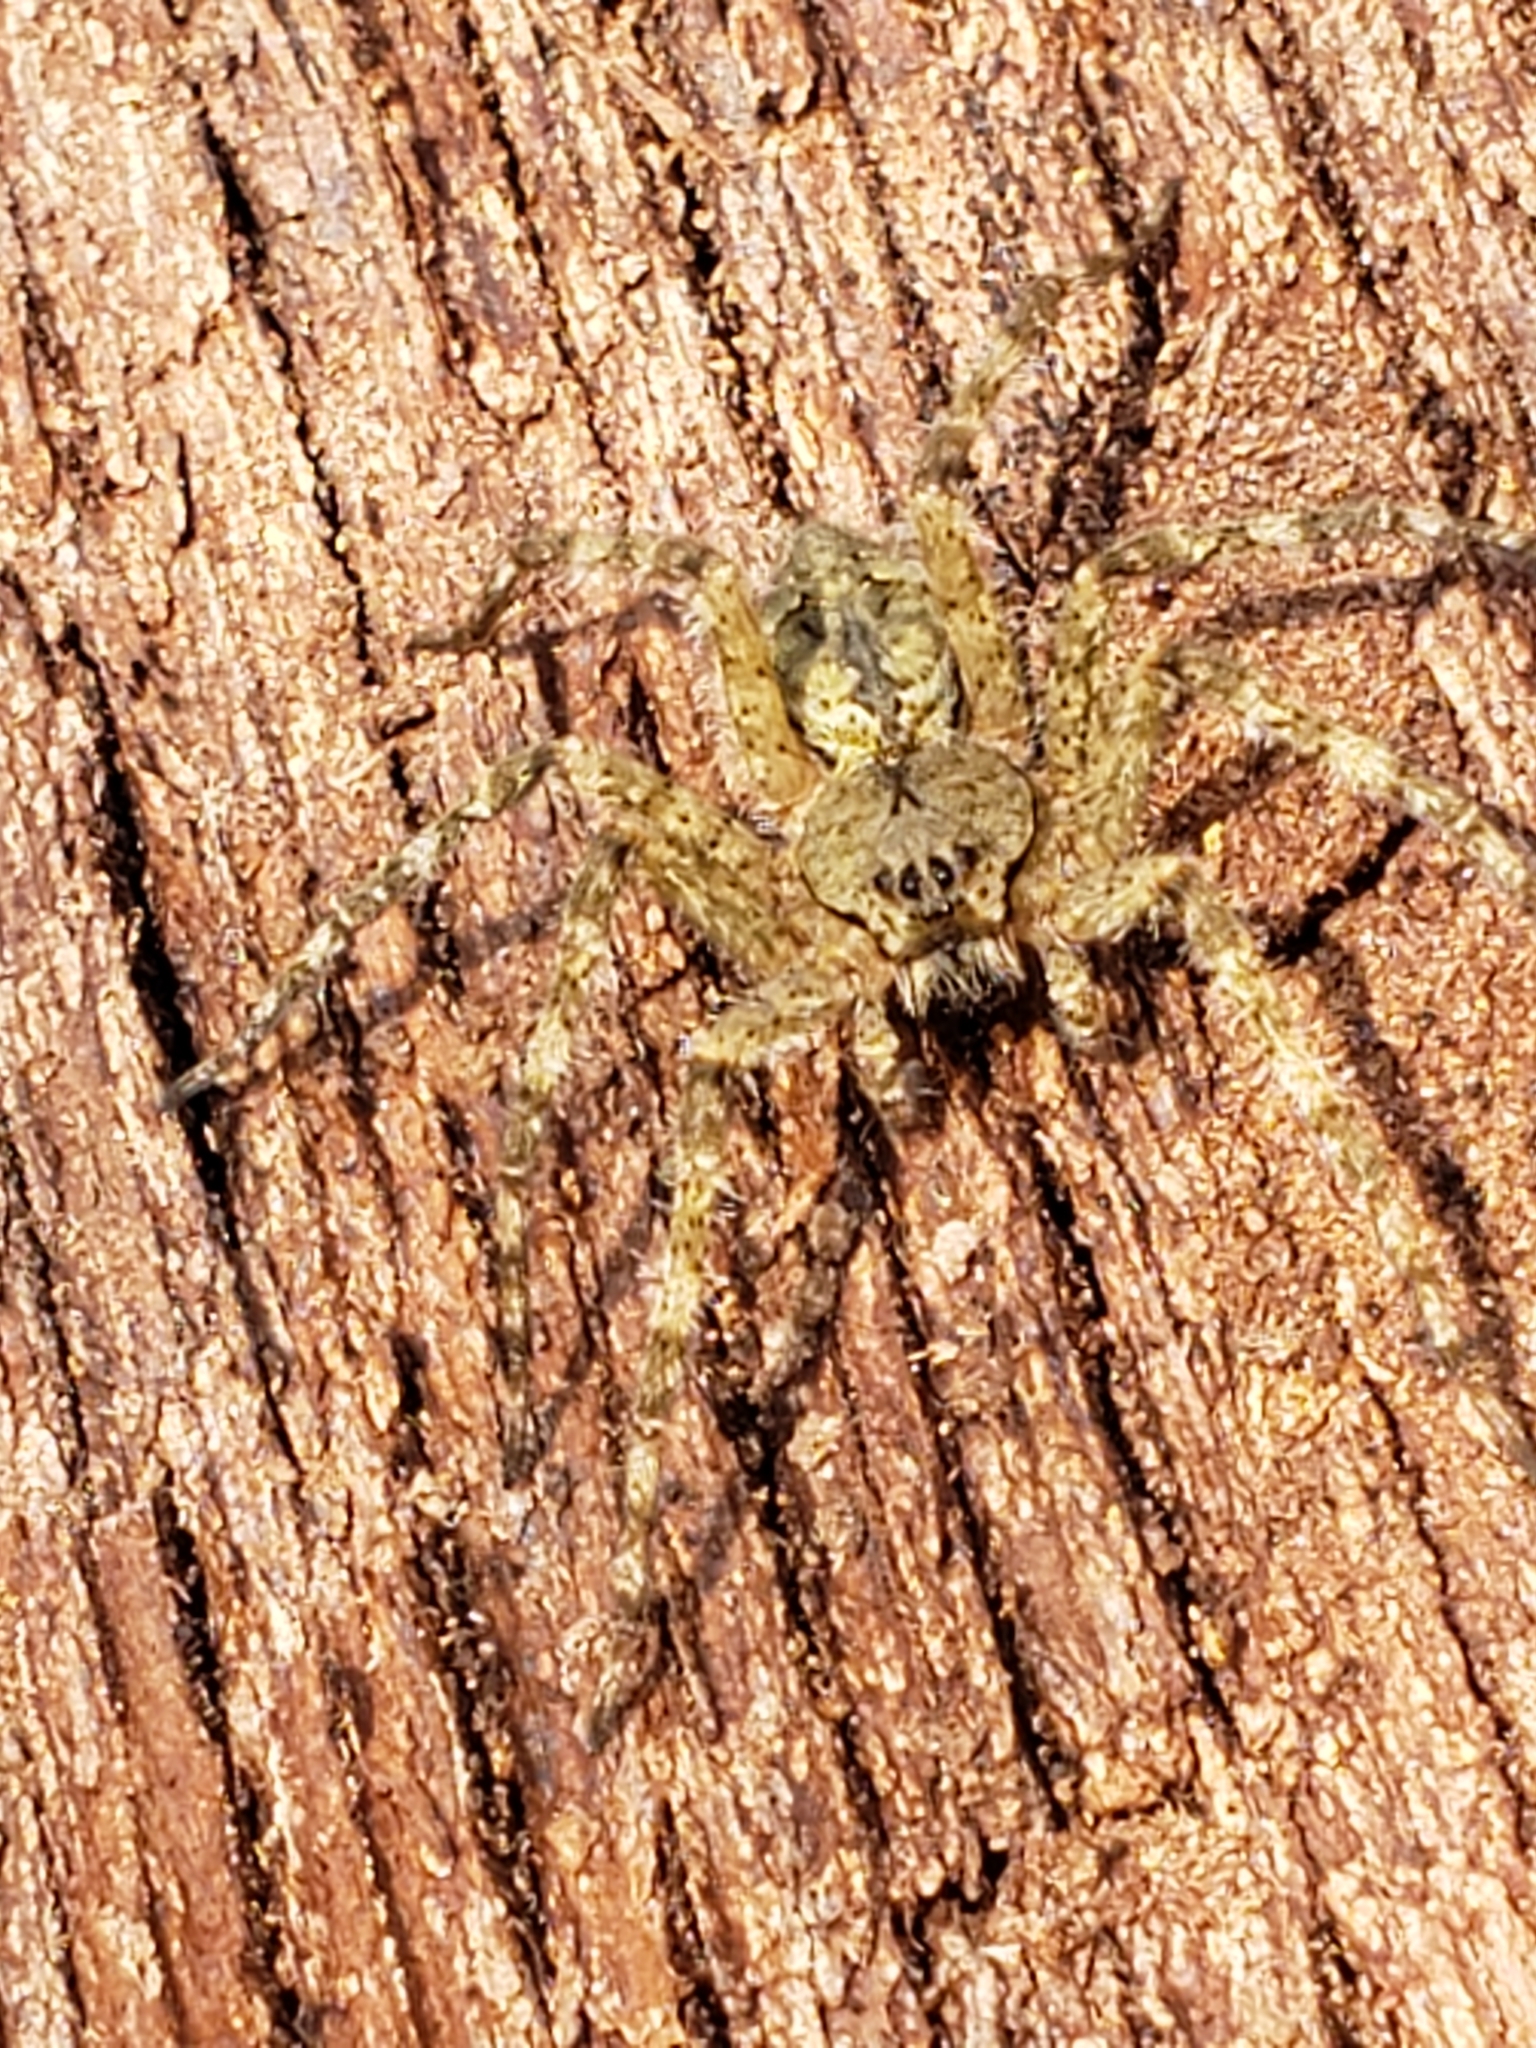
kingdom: Animalia
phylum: Arthropoda
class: Arachnida
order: Araneae
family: Pisauridae
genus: Dolomedes
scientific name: Dolomedes albineus
